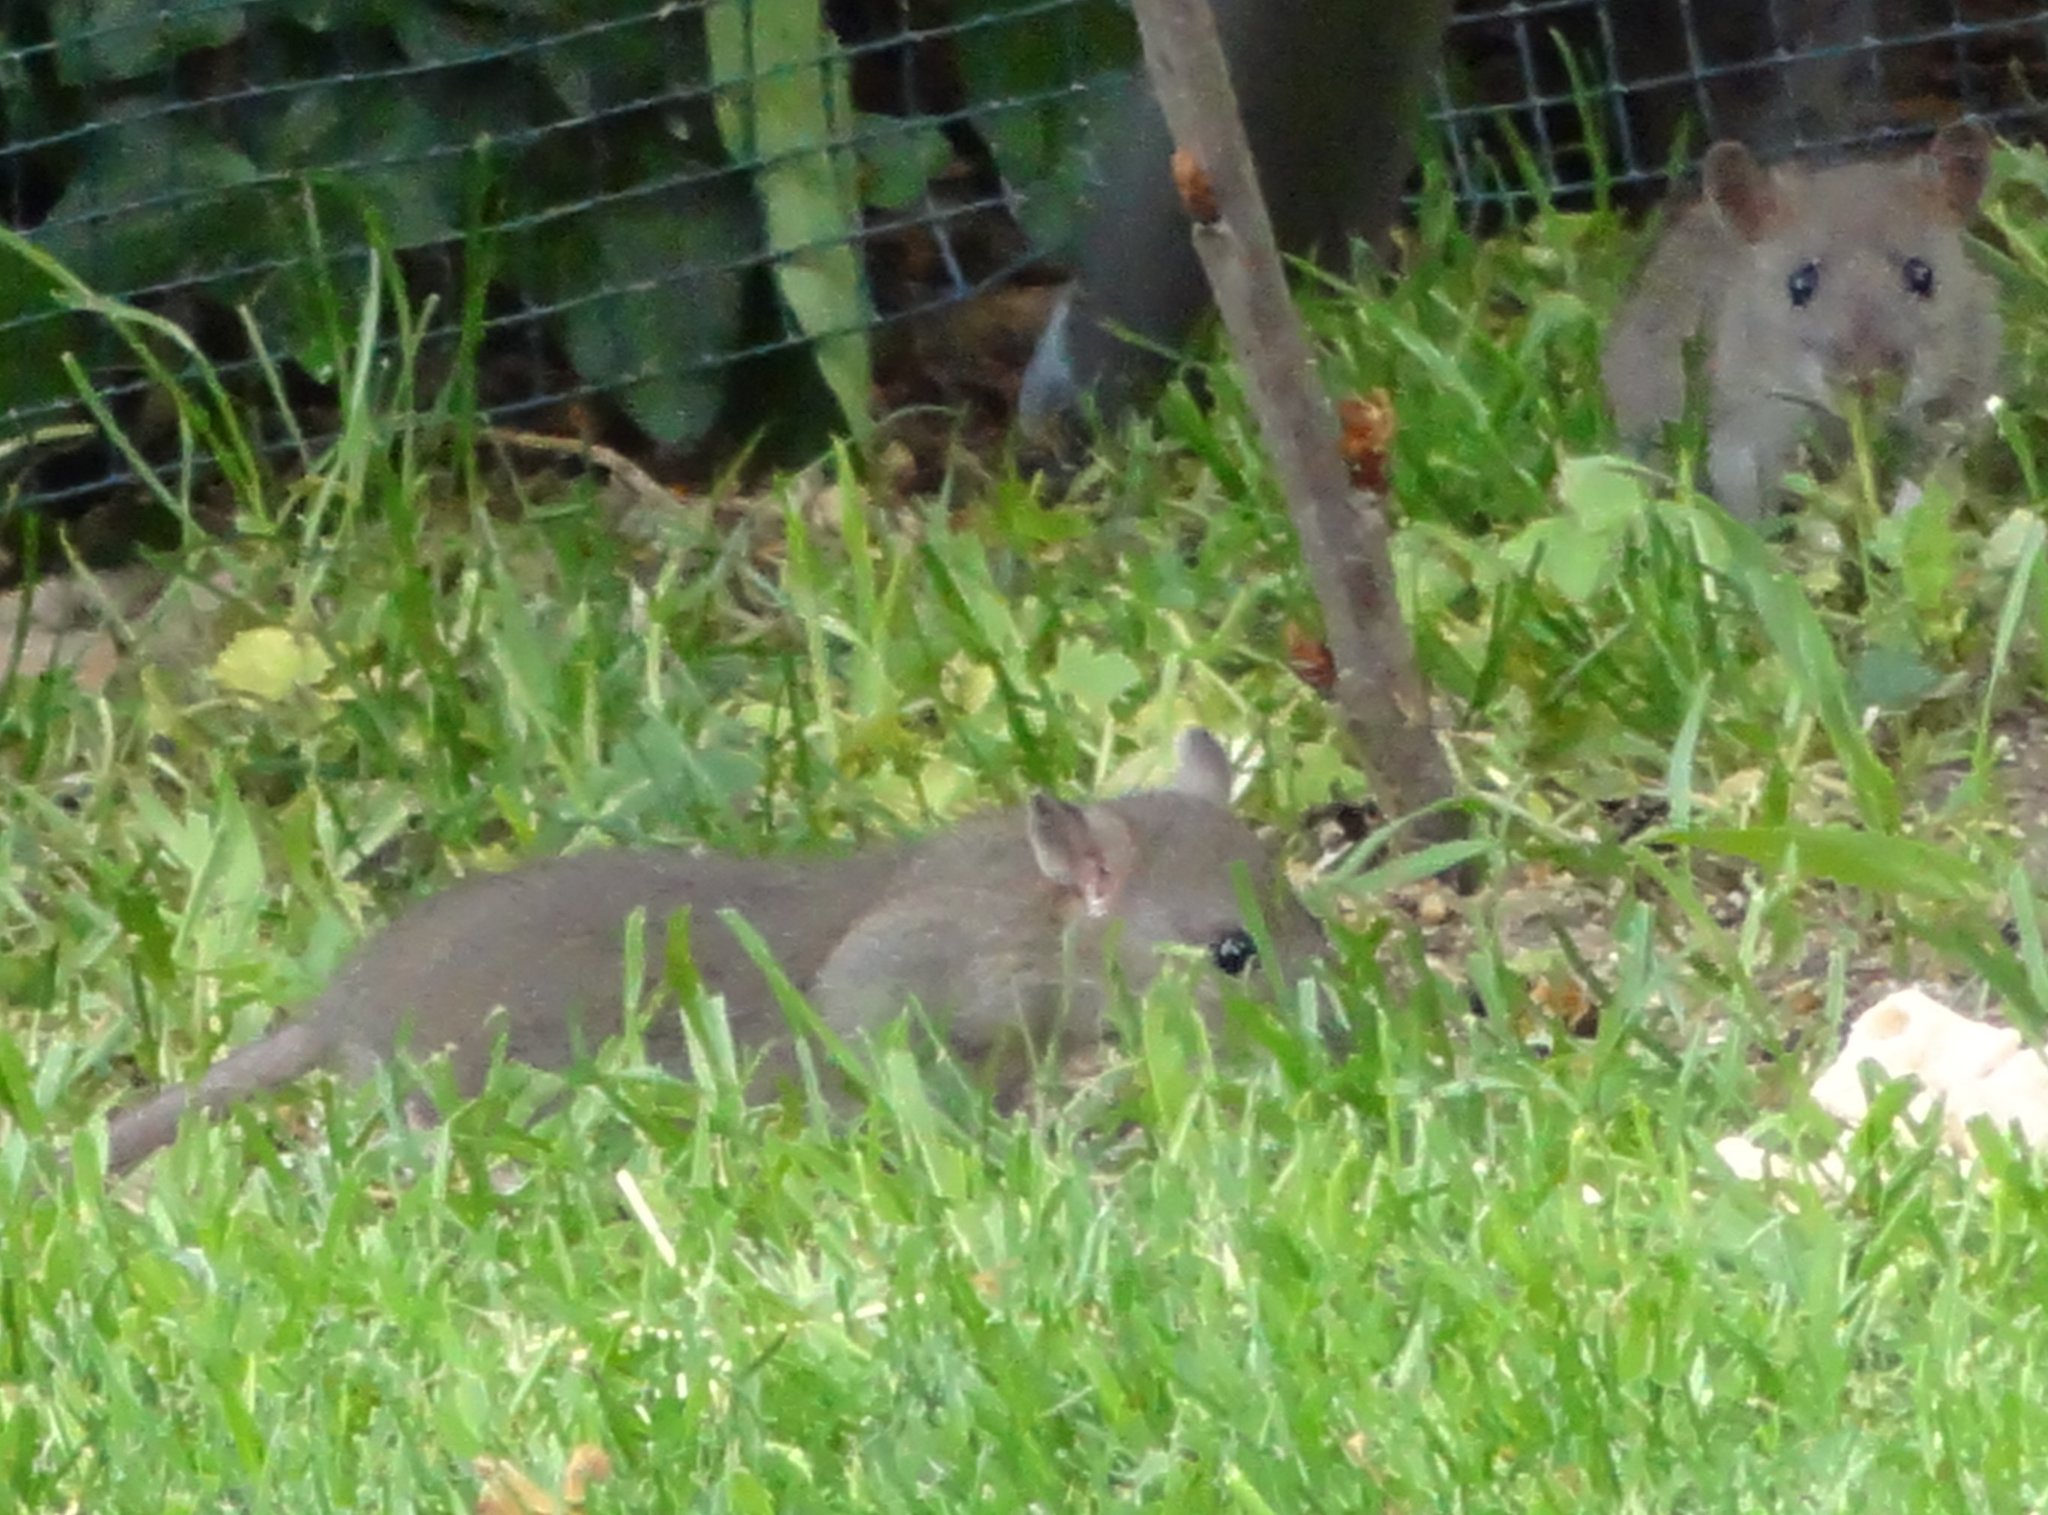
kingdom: Animalia
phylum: Chordata
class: Mammalia
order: Rodentia
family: Muridae
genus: Rattus
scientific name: Rattus norvegicus
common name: Brown rat
